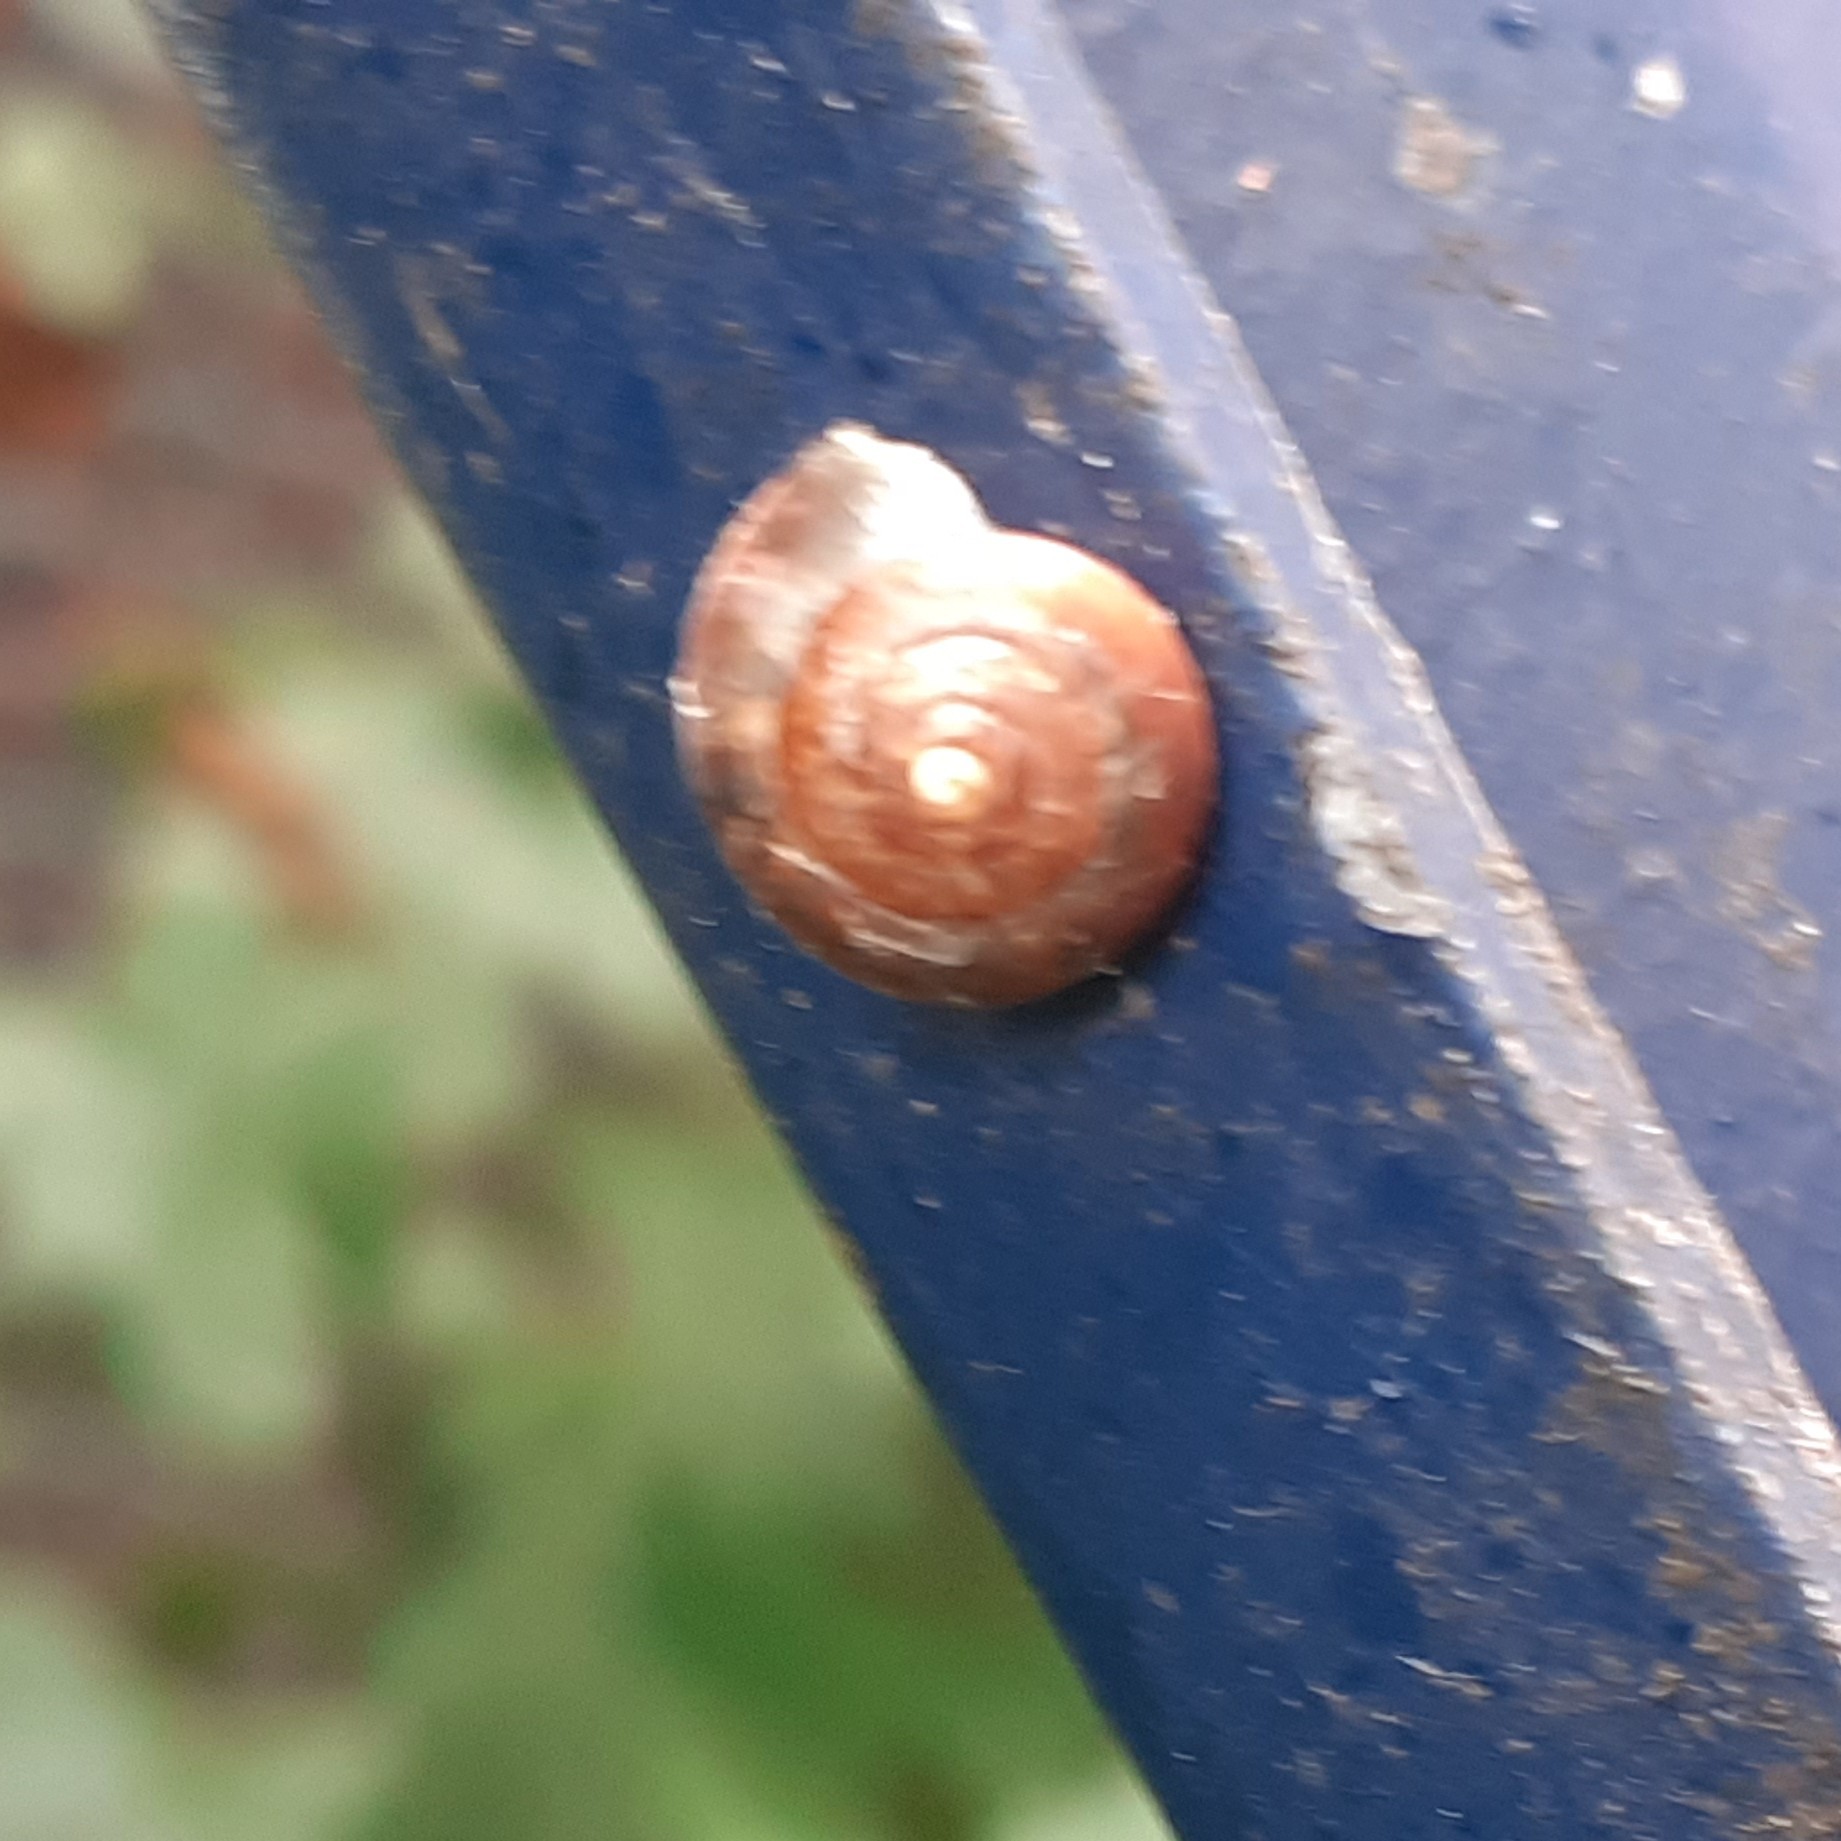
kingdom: Animalia
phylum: Mollusca
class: Gastropoda
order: Stylommatophora
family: Hygromiidae
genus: Hygromia
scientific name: Hygromia cinctella
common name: Girdled snail
